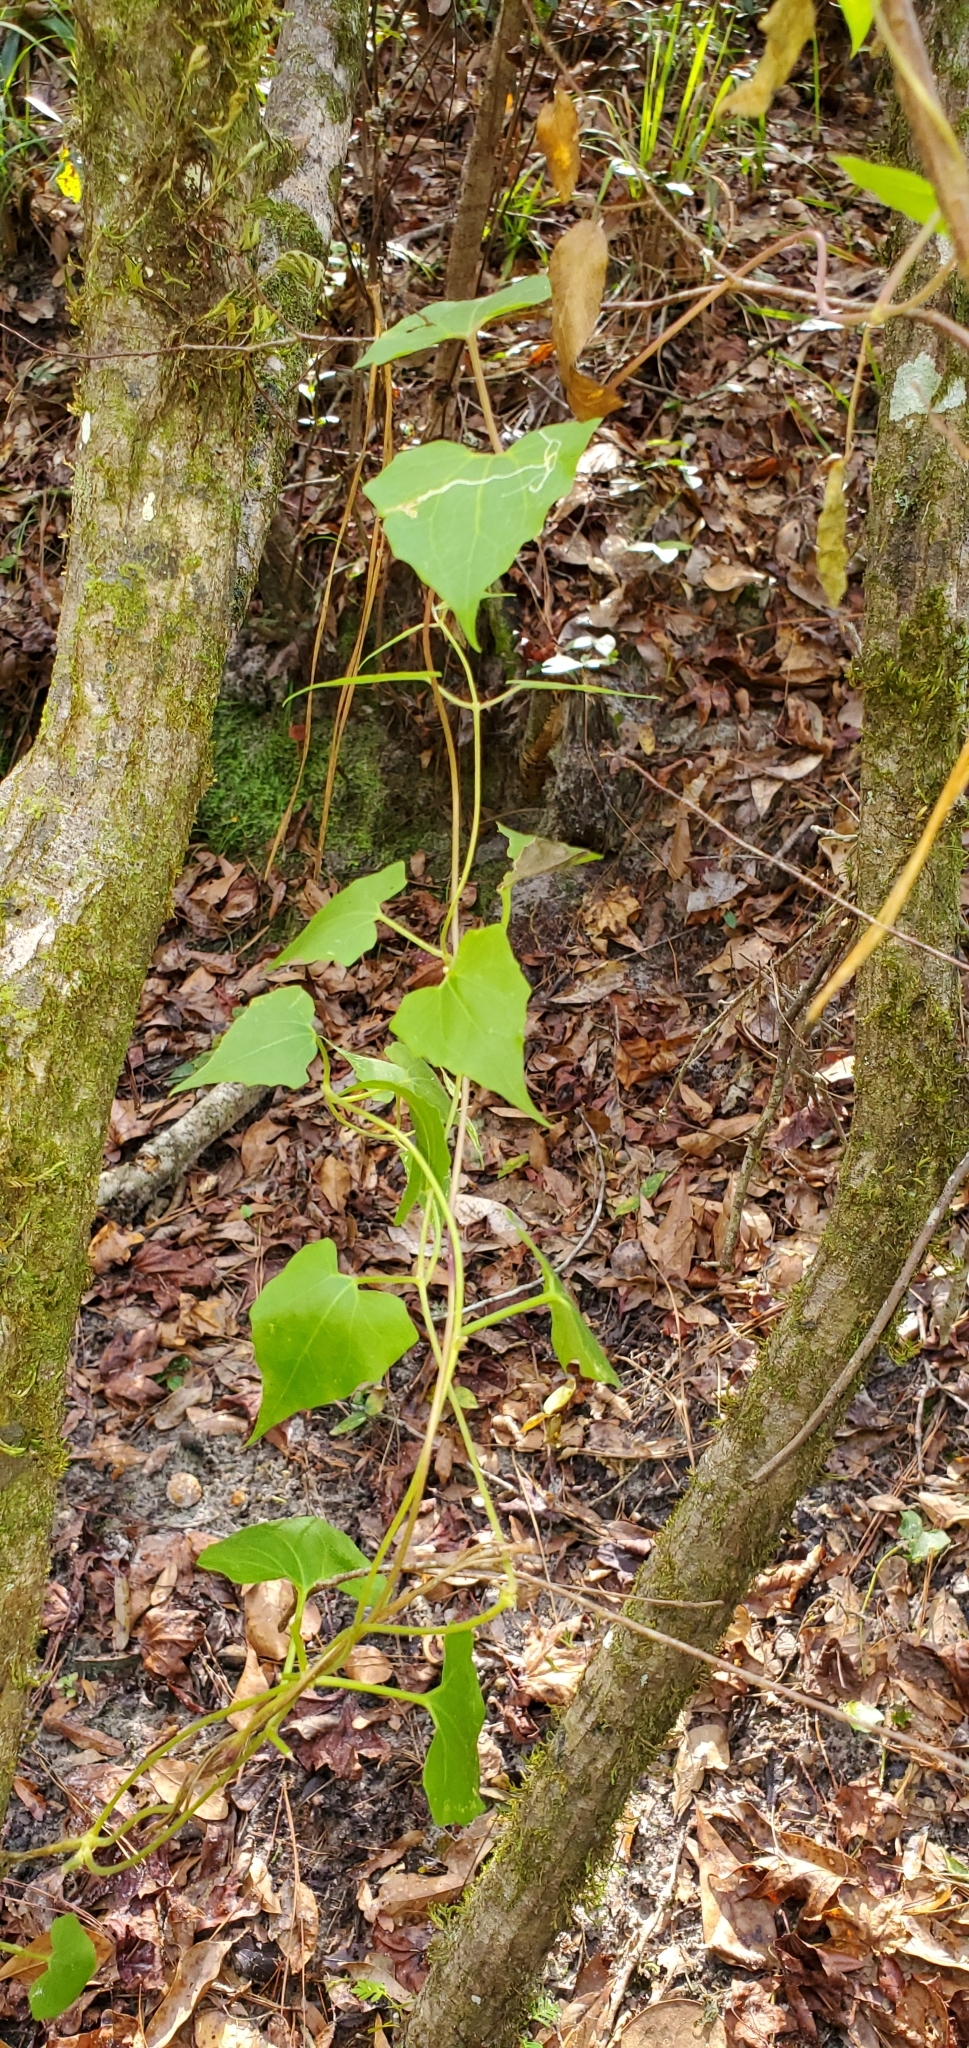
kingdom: Plantae
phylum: Tracheophyta
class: Magnoliopsida
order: Asterales
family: Asteraceae
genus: Mikania
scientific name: Mikania scandens
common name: Climbing hempvine
